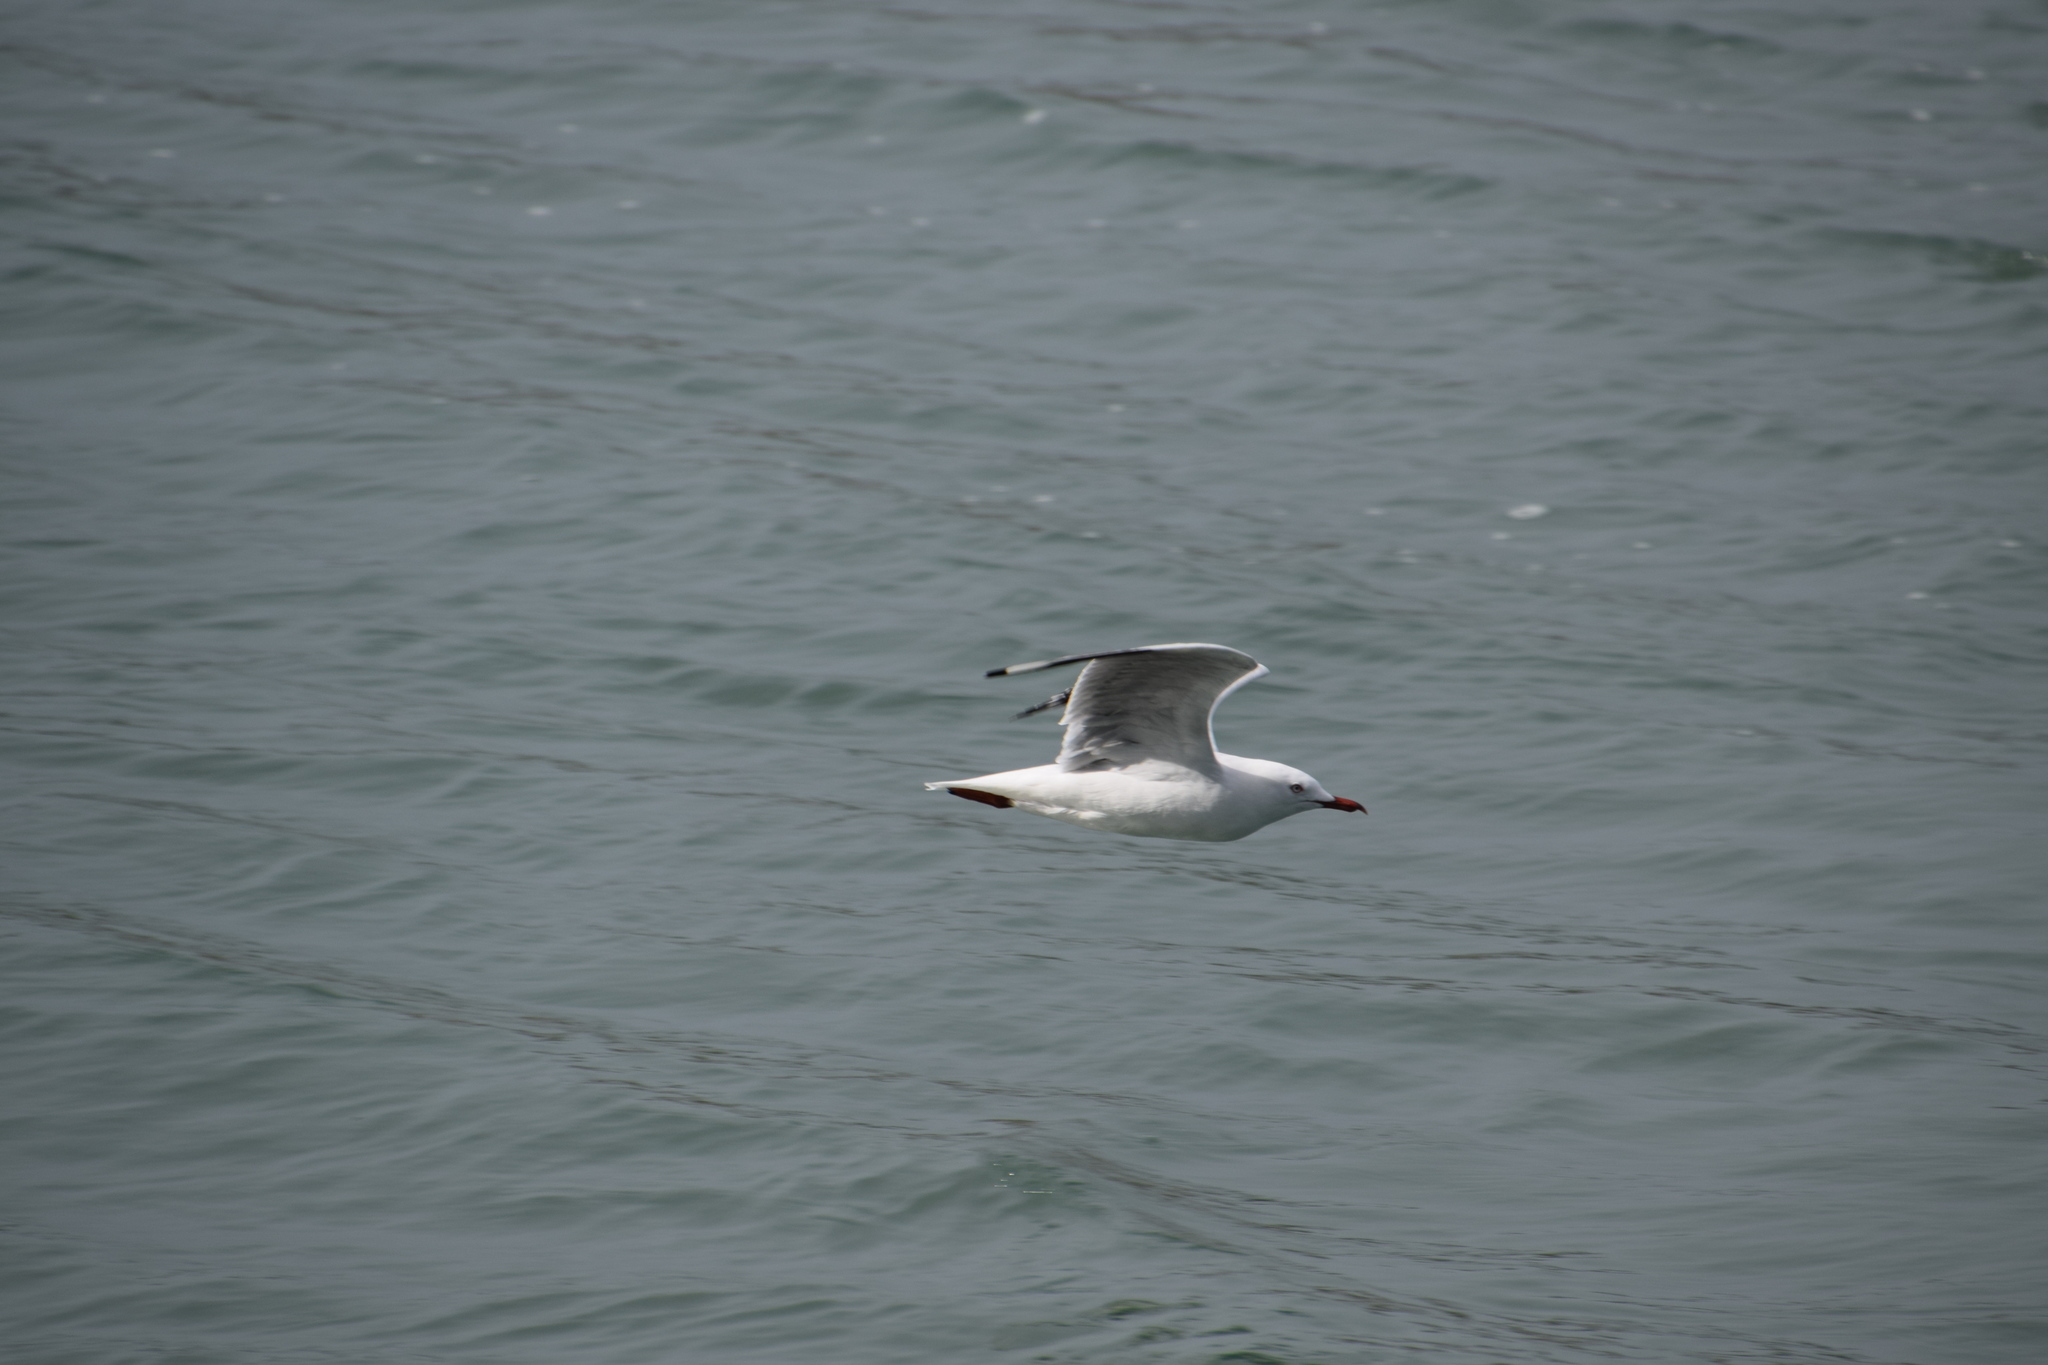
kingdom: Animalia
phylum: Chordata
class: Aves
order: Charadriiformes
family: Laridae
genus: Chroicocephalus
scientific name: Chroicocephalus novaehollandiae
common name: Silver gull
